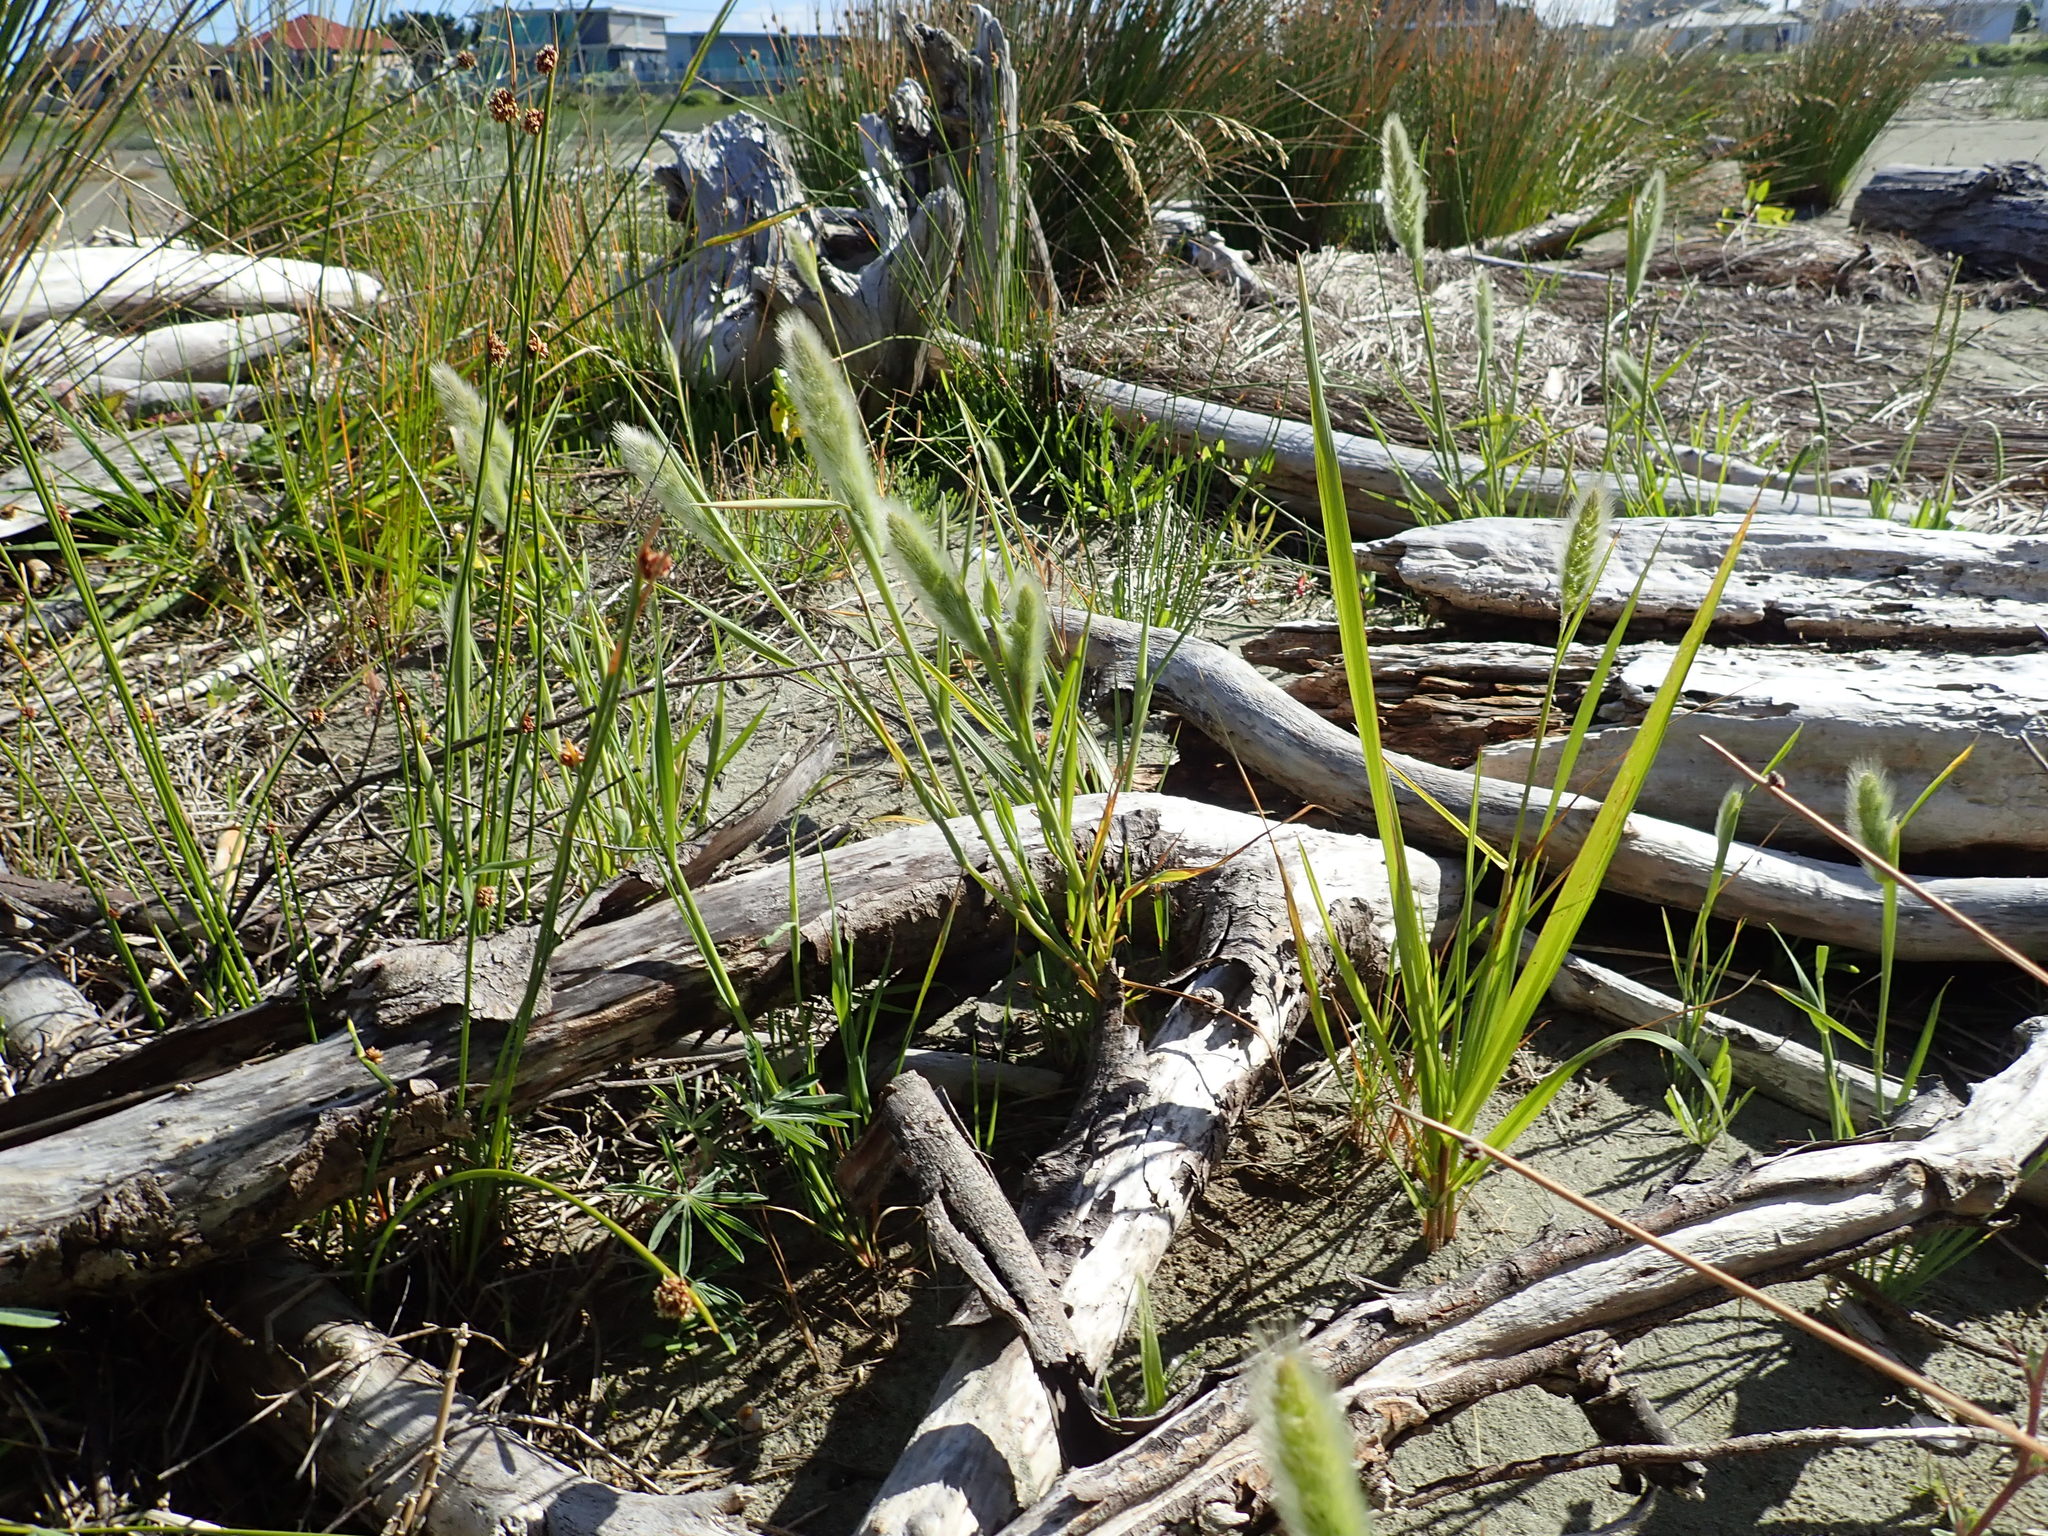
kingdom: Plantae
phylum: Tracheophyta
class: Liliopsida
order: Poales
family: Poaceae
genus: Polypogon
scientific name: Polypogon monspeliensis
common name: Annual rabbitsfoot grass
